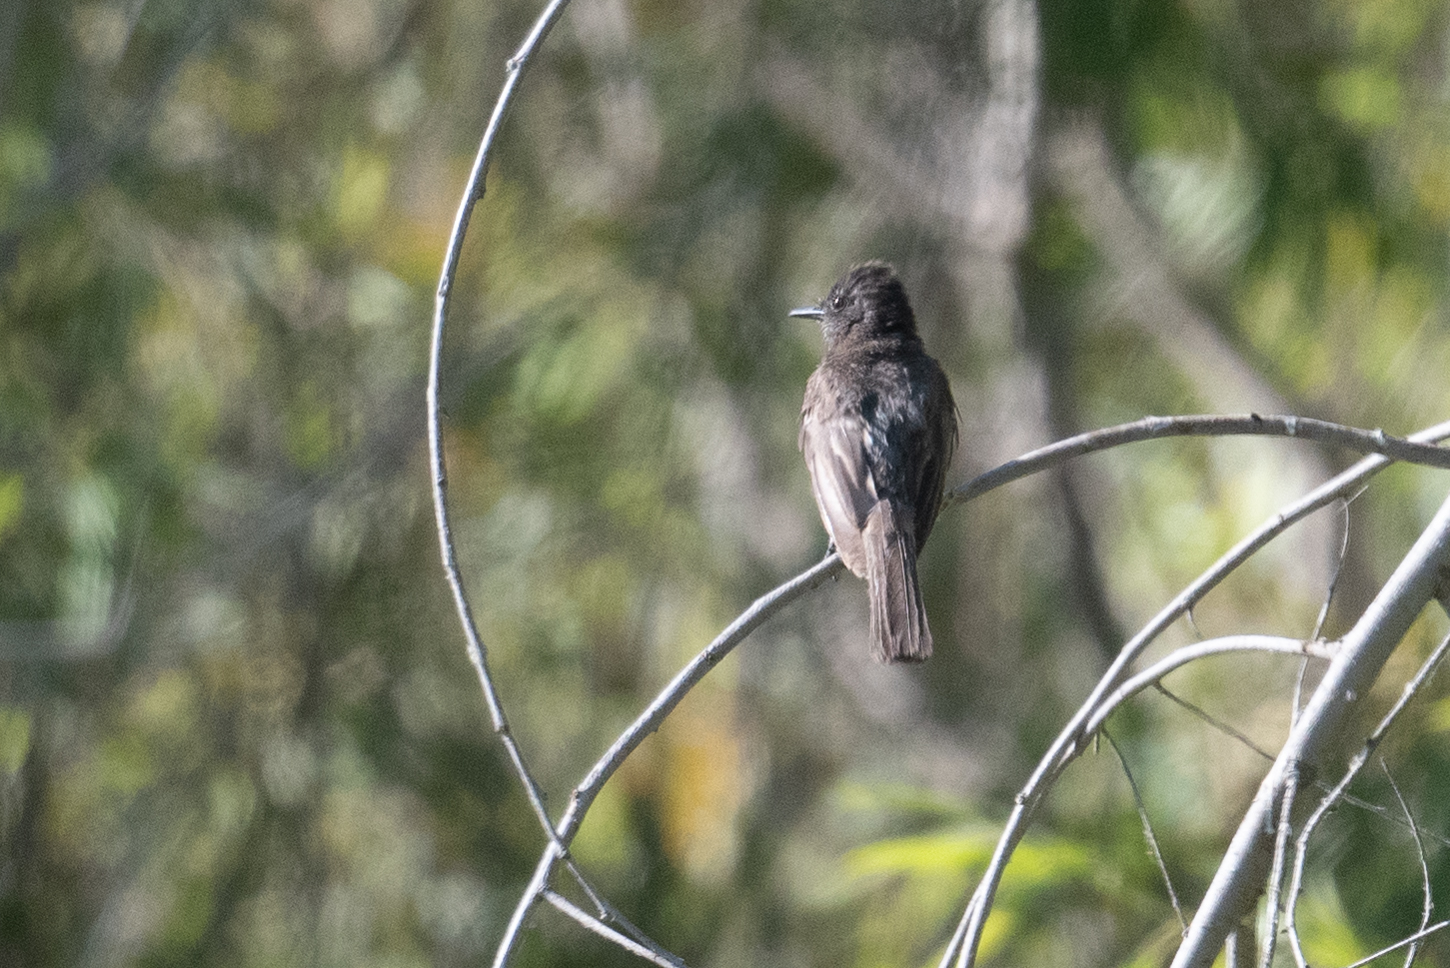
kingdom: Animalia
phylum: Chordata
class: Aves
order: Passeriformes
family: Tyrannidae
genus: Sayornis
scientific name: Sayornis nigricans
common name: Black phoebe
